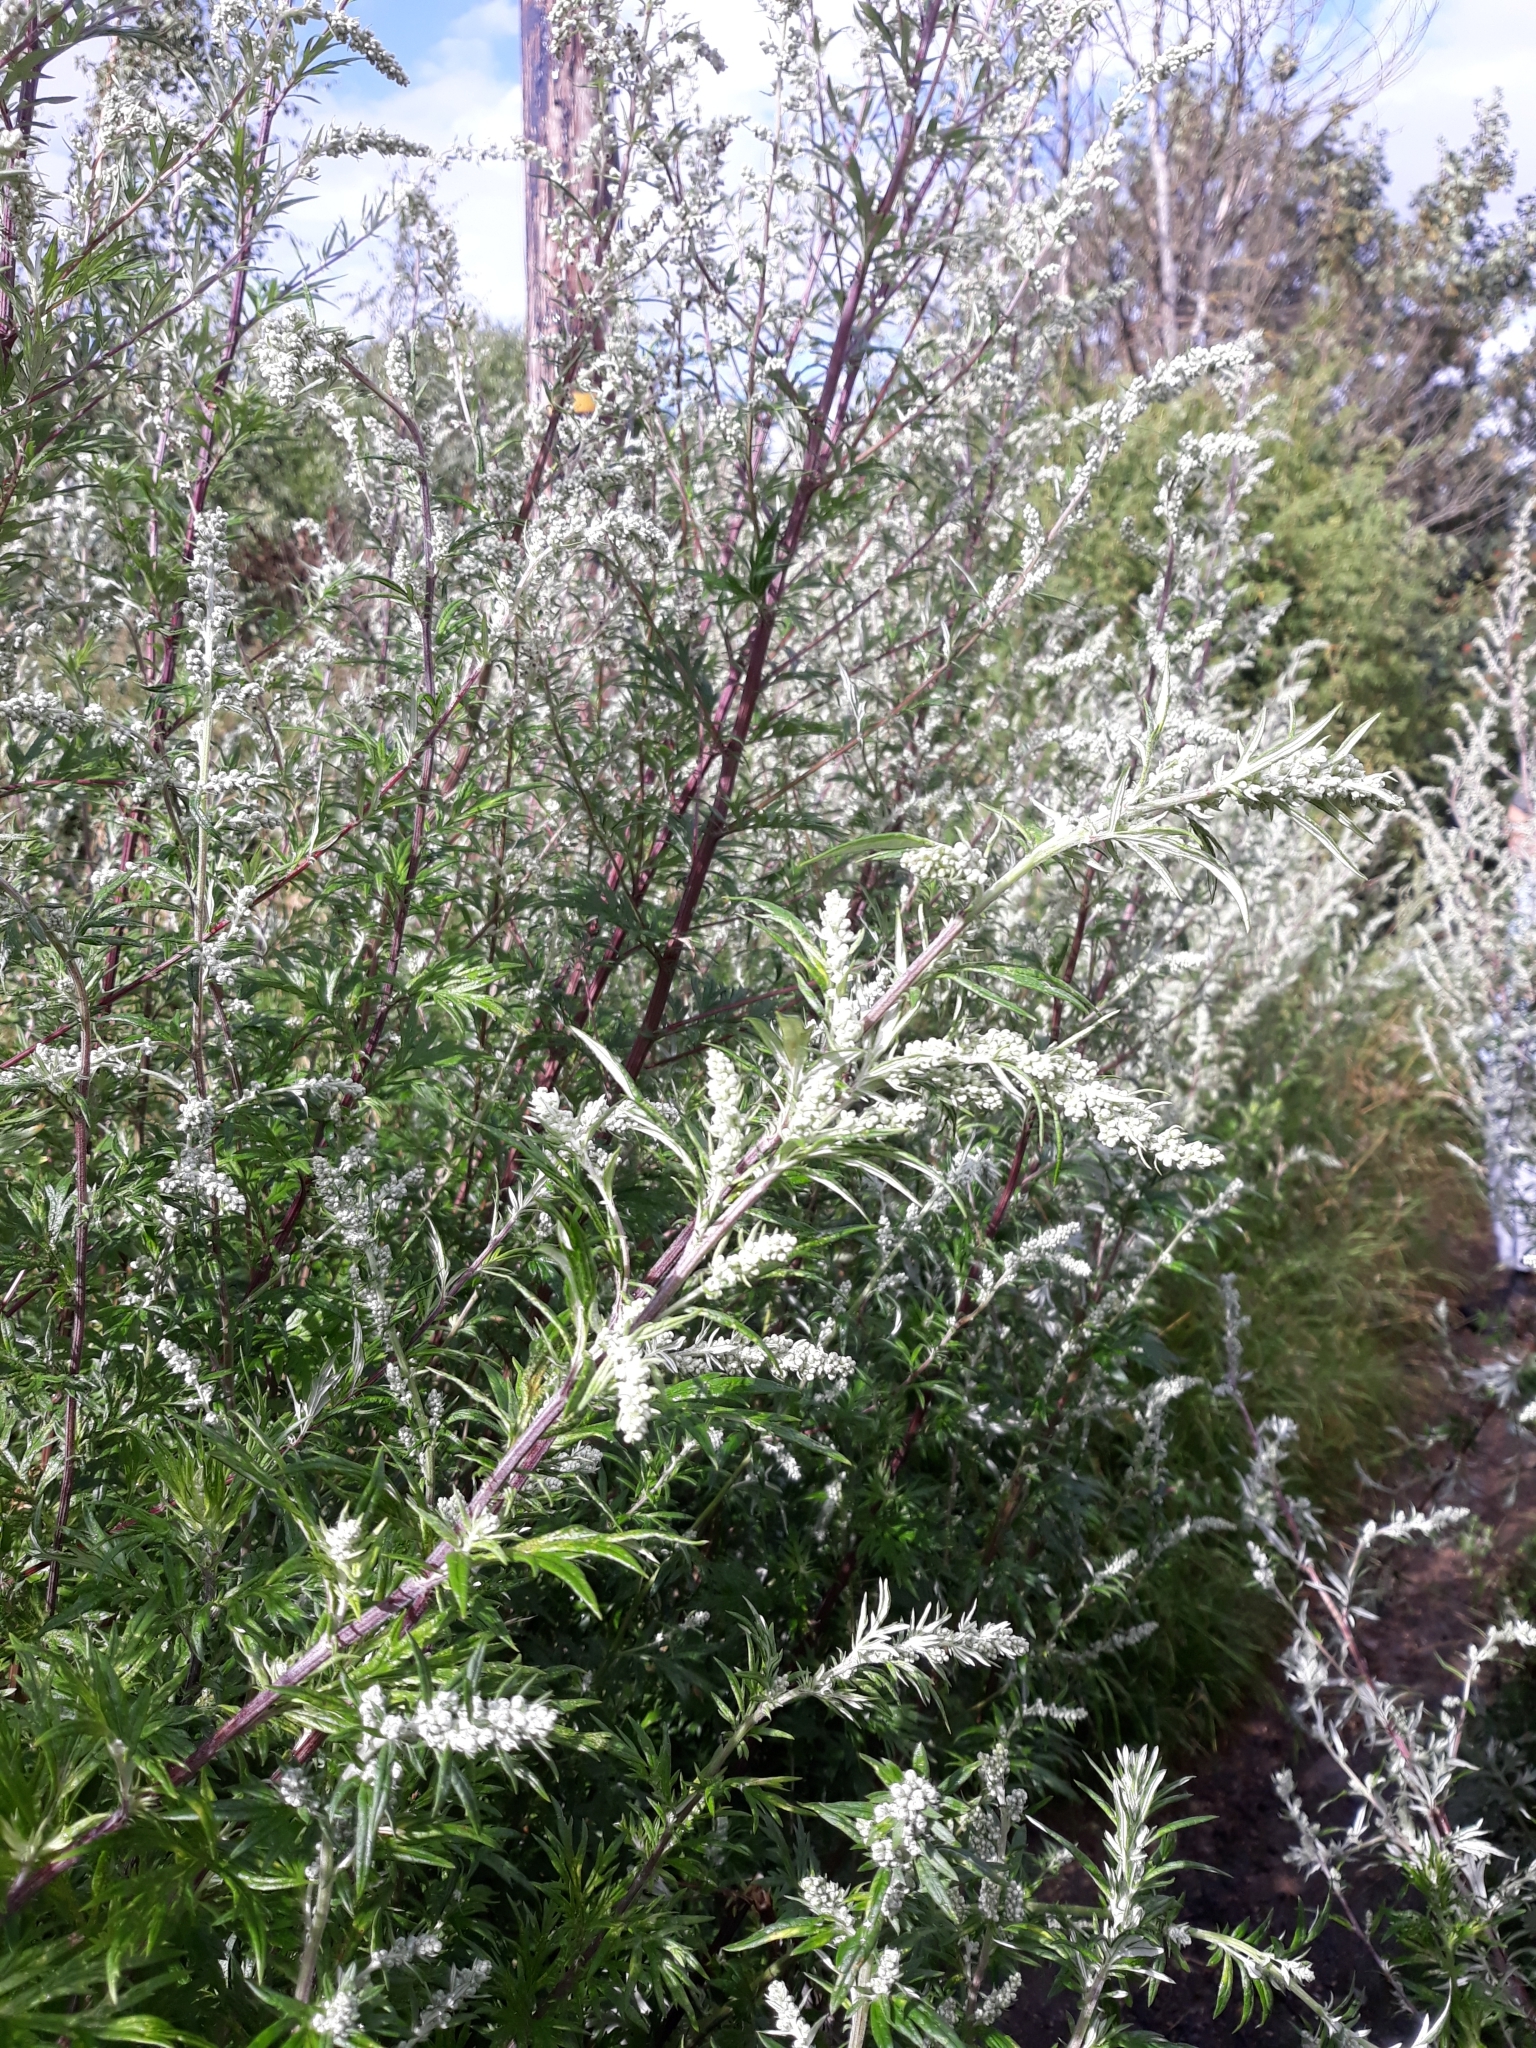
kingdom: Plantae
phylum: Tracheophyta
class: Magnoliopsida
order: Asterales
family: Asteraceae
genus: Artemisia
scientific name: Artemisia vulgaris
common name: Mugwort
